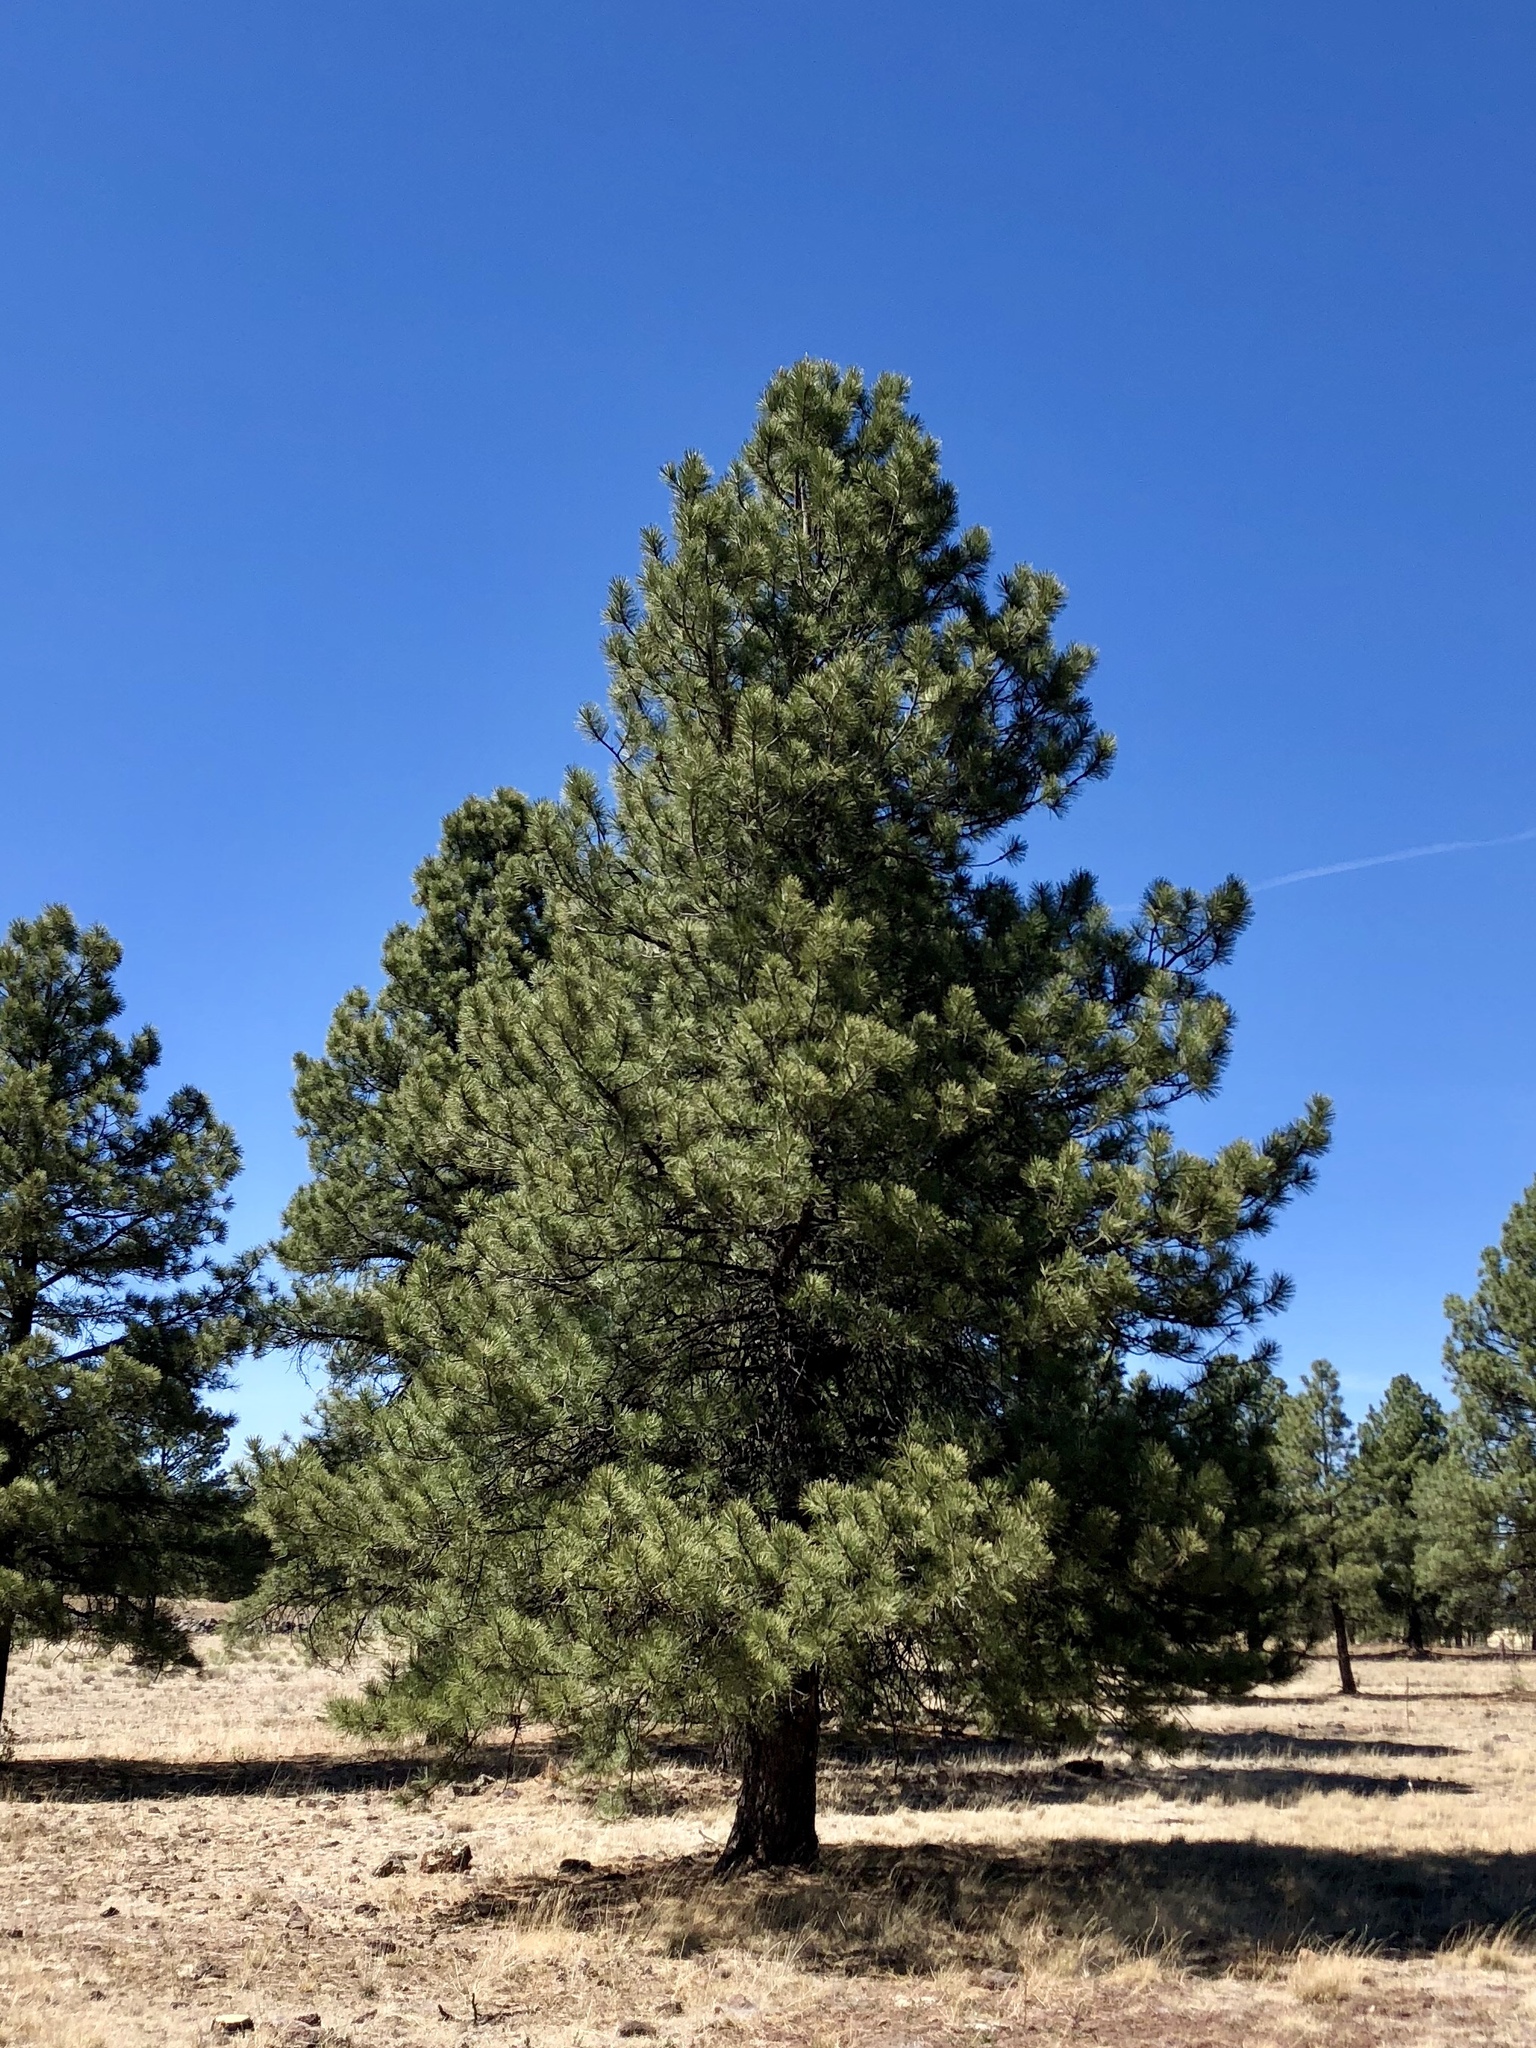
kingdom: Plantae
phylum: Tracheophyta
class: Pinopsida
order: Pinales
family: Pinaceae
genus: Pinus
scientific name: Pinus ponderosa
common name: Western yellow-pine
